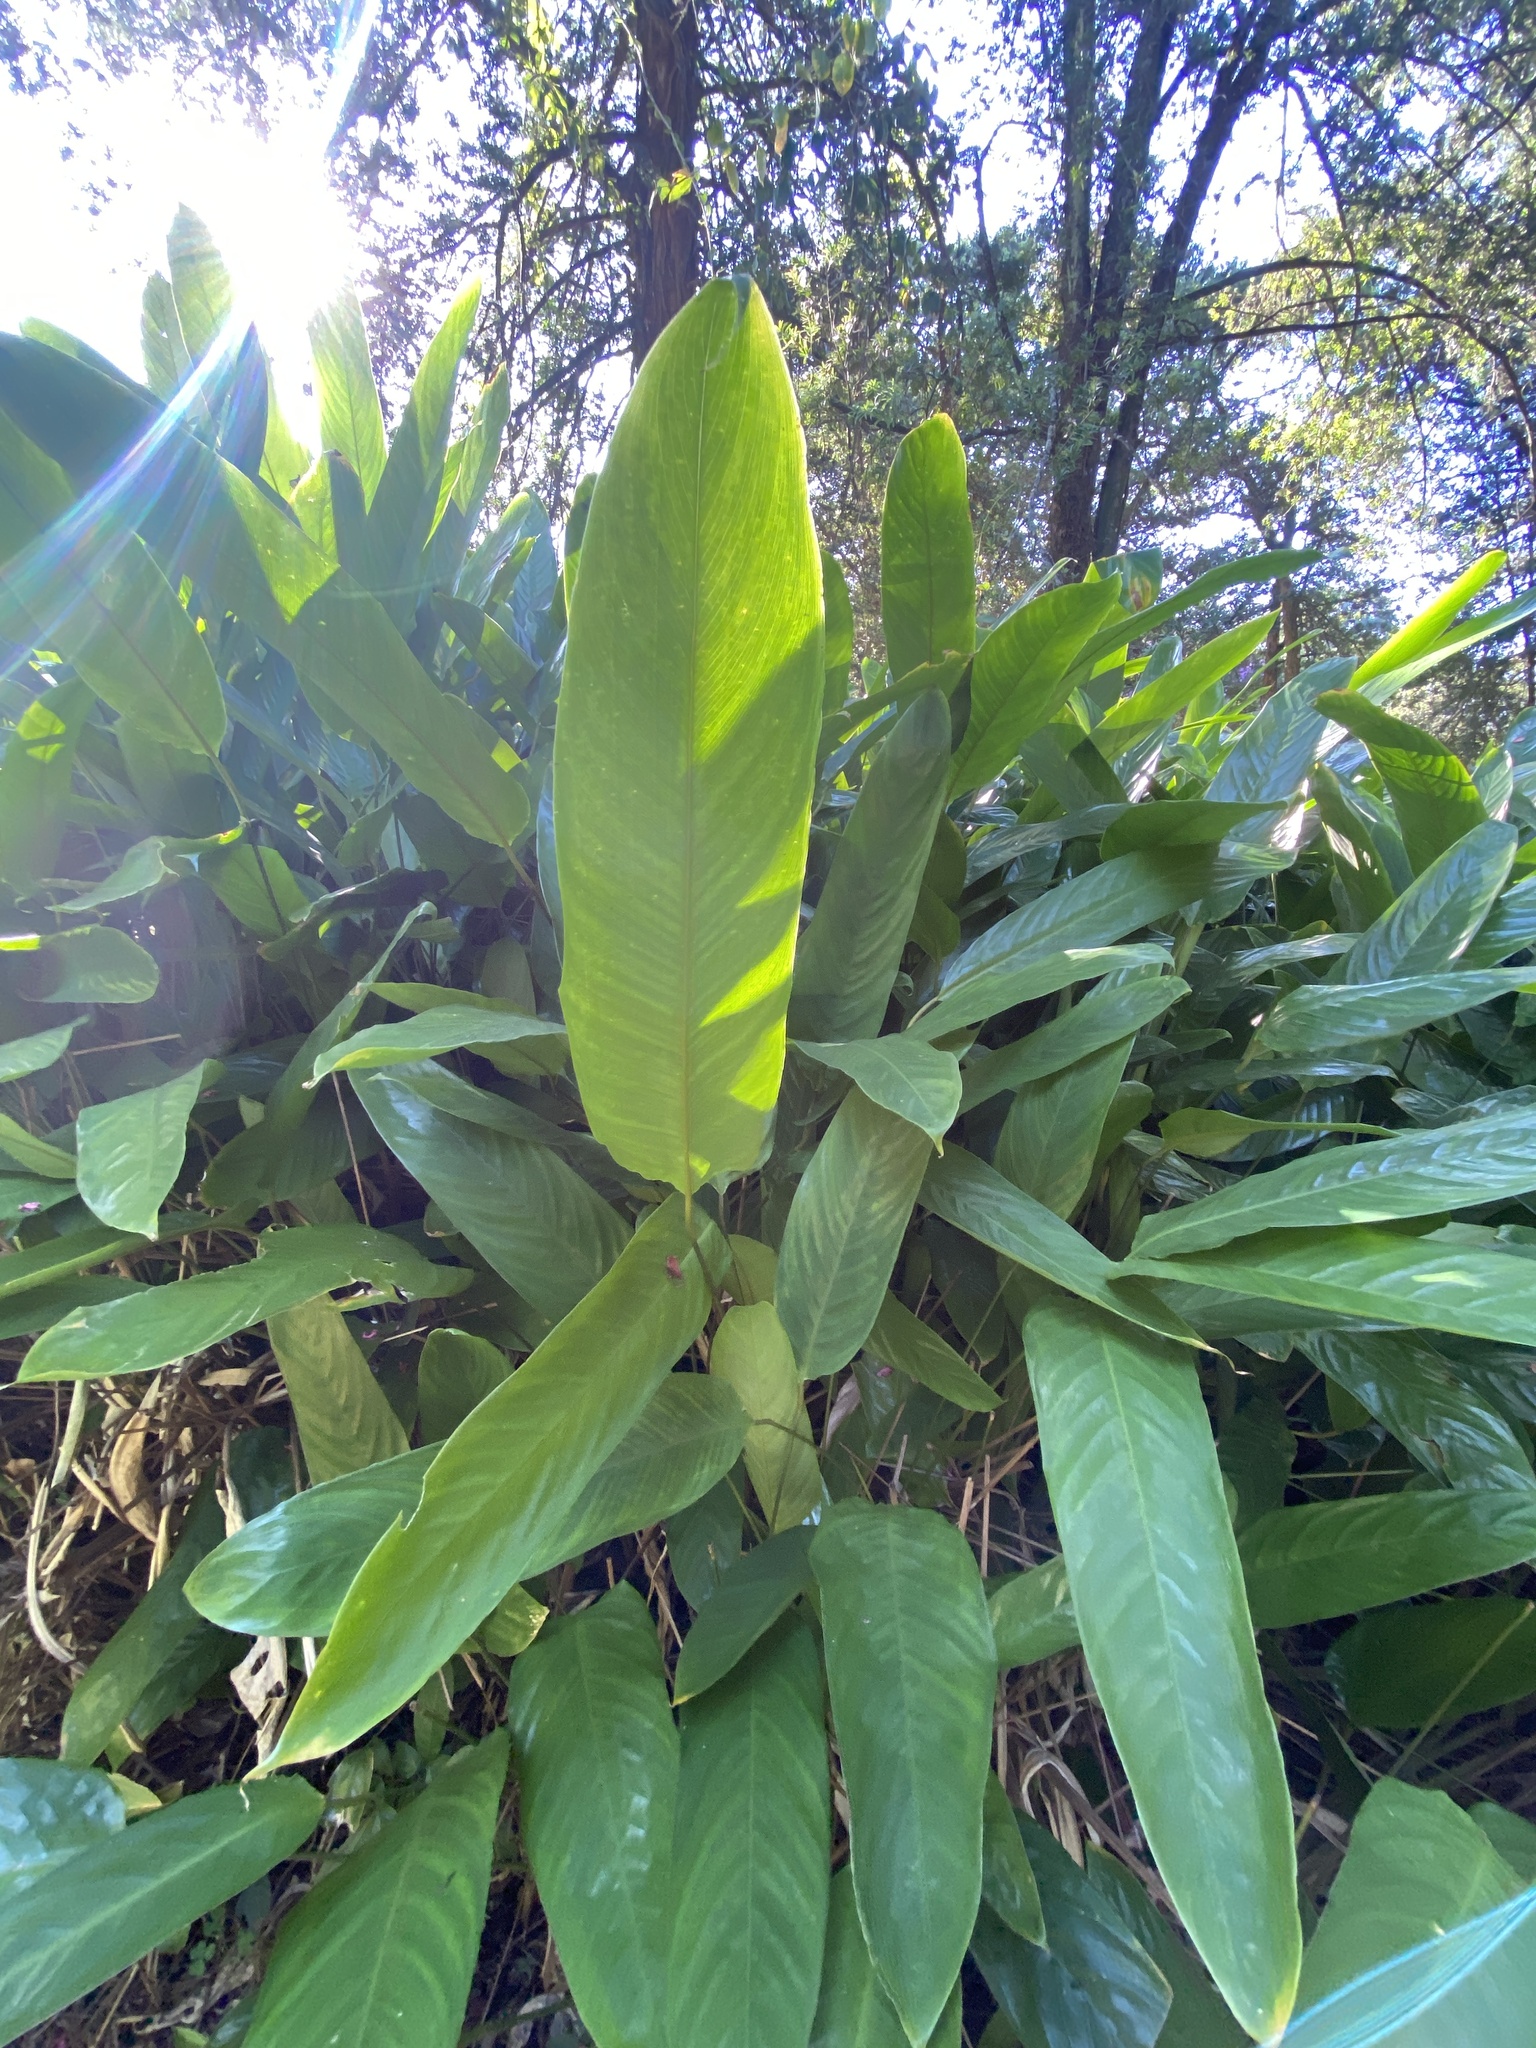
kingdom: Plantae
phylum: Tracheophyta
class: Liliopsida
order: Zingiberales
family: Marantaceae
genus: Maranta
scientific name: Maranta arundinacea
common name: Arrowroot
